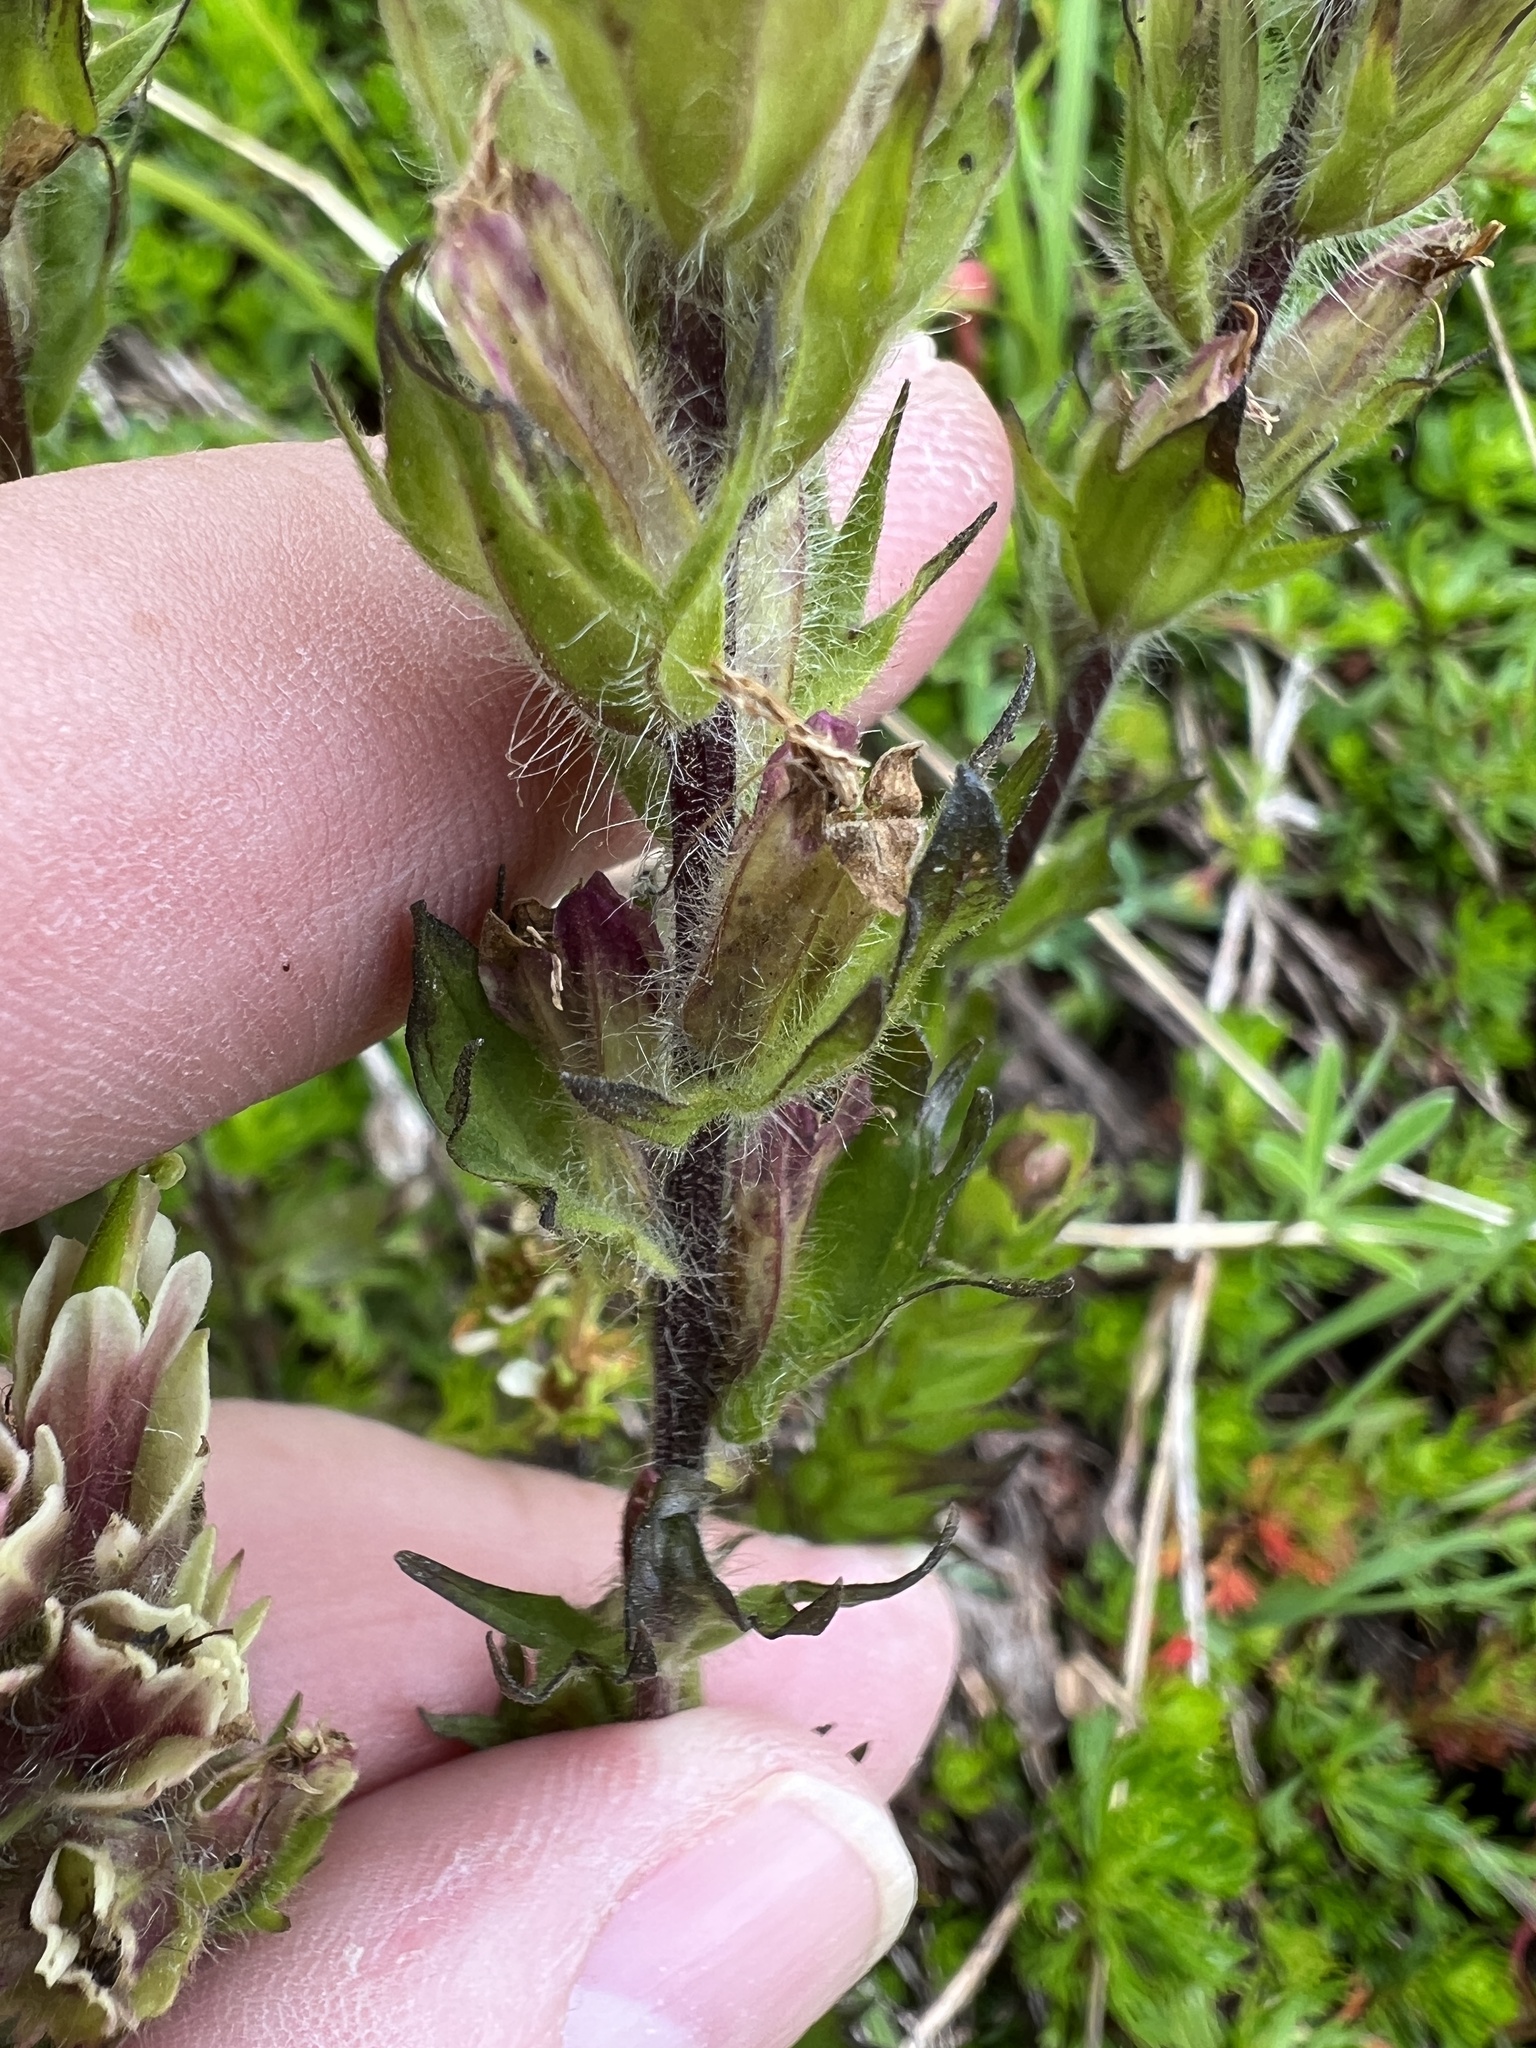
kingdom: Plantae
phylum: Tracheophyta
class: Magnoliopsida
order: Lamiales
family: Orobanchaceae
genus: Castilleja
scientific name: Castilleja parviflora
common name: Mountain paintbrush
